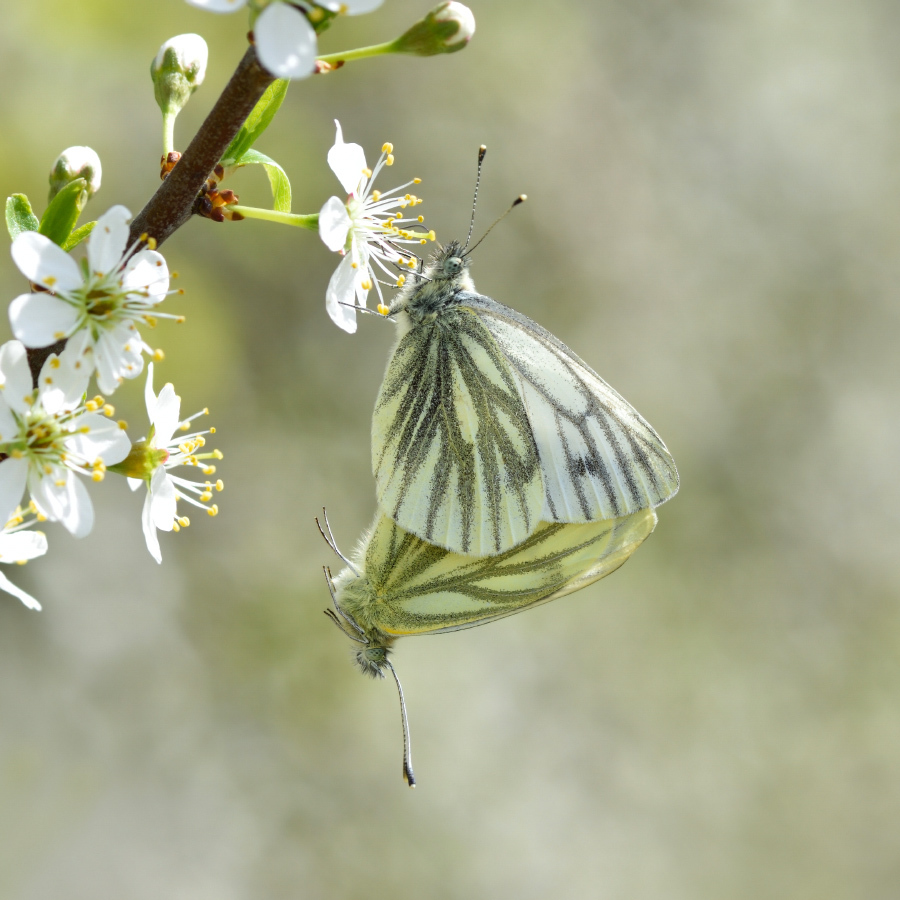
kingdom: Animalia
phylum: Arthropoda
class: Insecta
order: Lepidoptera
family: Pieridae
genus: Pieris
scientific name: Pieris napi
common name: Green-veined white
